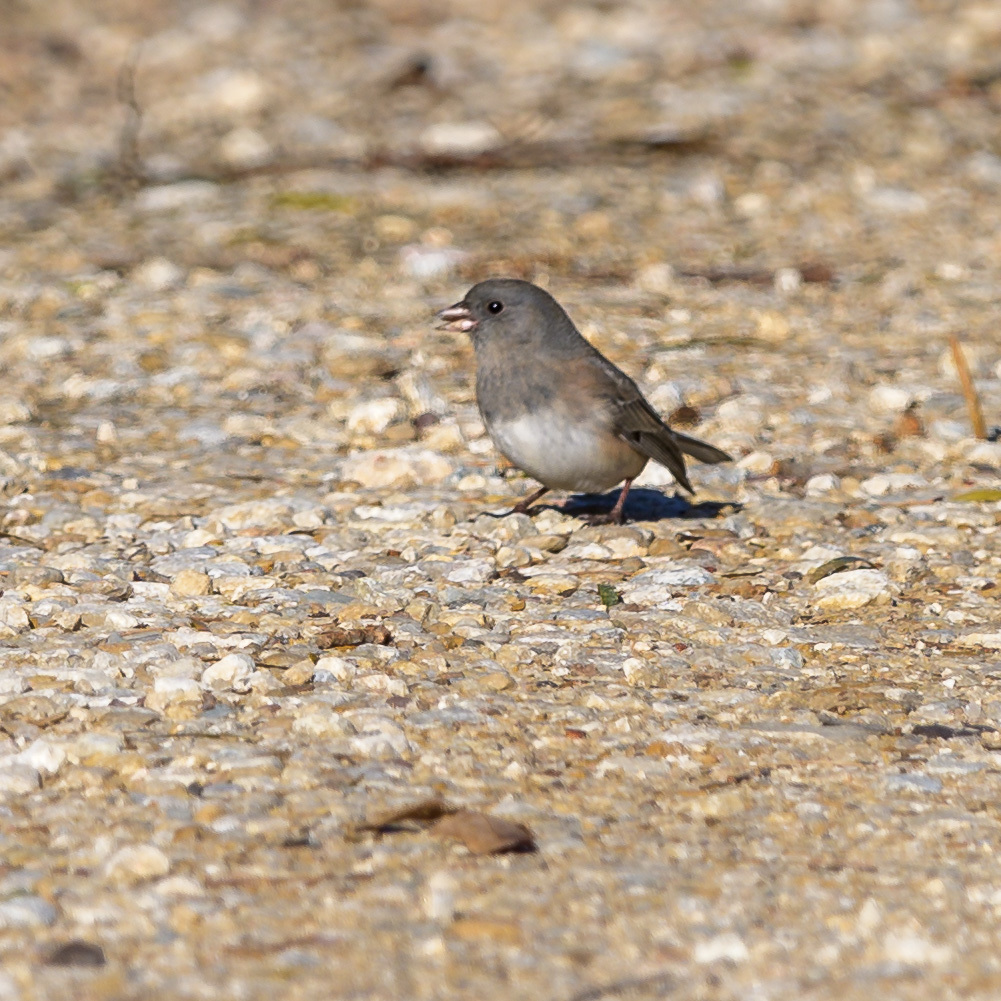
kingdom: Animalia
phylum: Chordata
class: Aves
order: Passeriformes
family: Passerellidae
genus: Junco
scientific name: Junco hyemalis
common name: Dark-eyed junco
